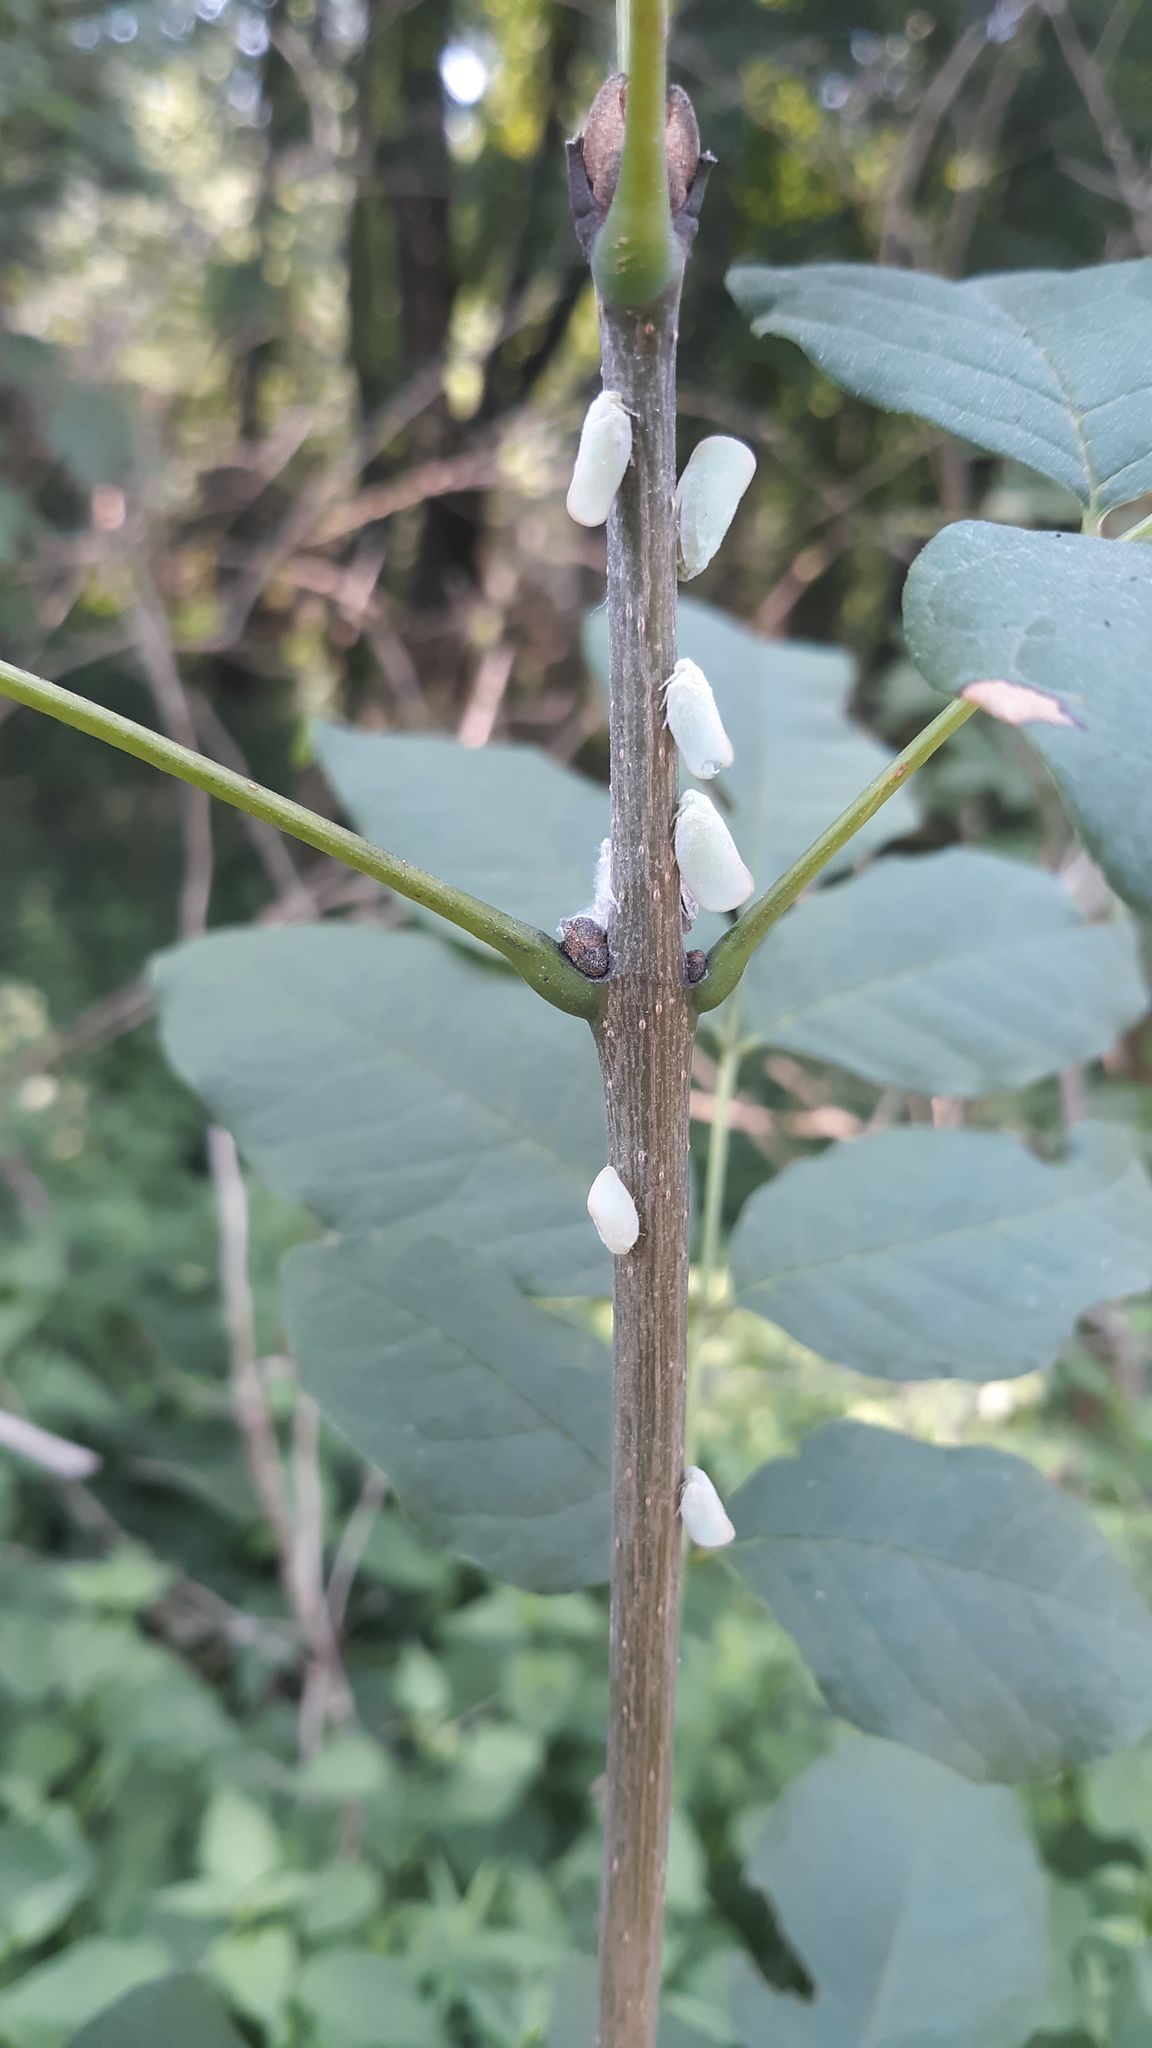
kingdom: Animalia
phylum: Arthropoda
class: Insecta
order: Hemiptera
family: Flatidae
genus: Ormenoides
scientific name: Ormenoides venusta
